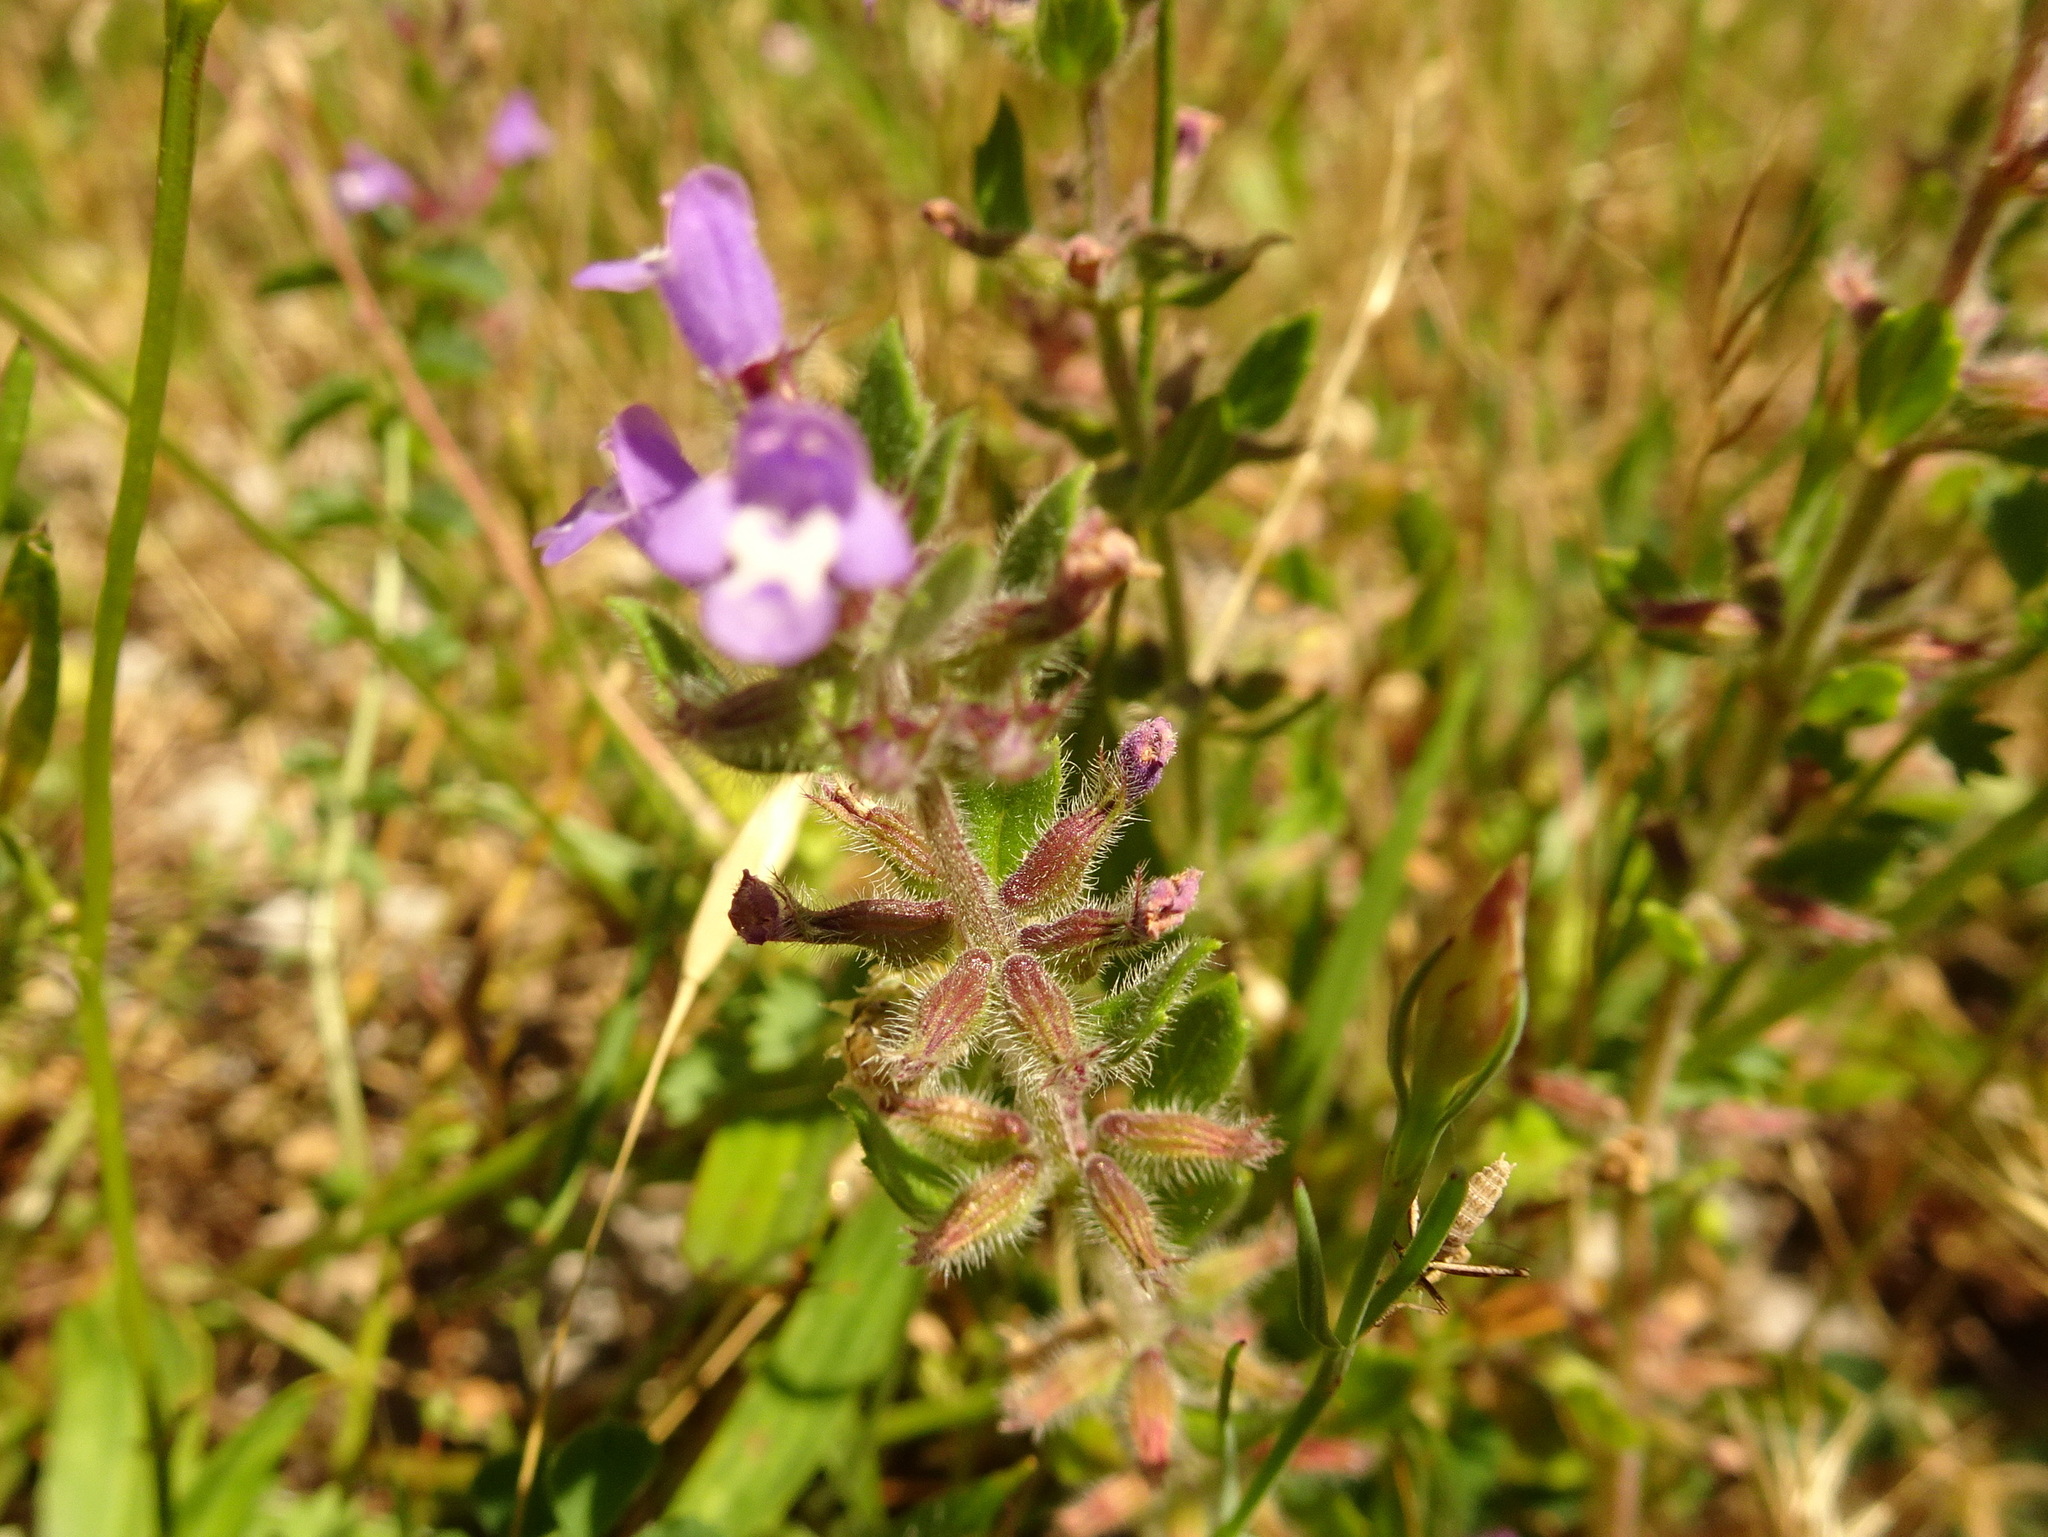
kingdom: Plantae
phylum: Tracheophyta
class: Magnoliopsida
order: Lamiales
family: Lamiaceae
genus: Clinopodium
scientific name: Clinopodium acinos
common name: Basil thyme
